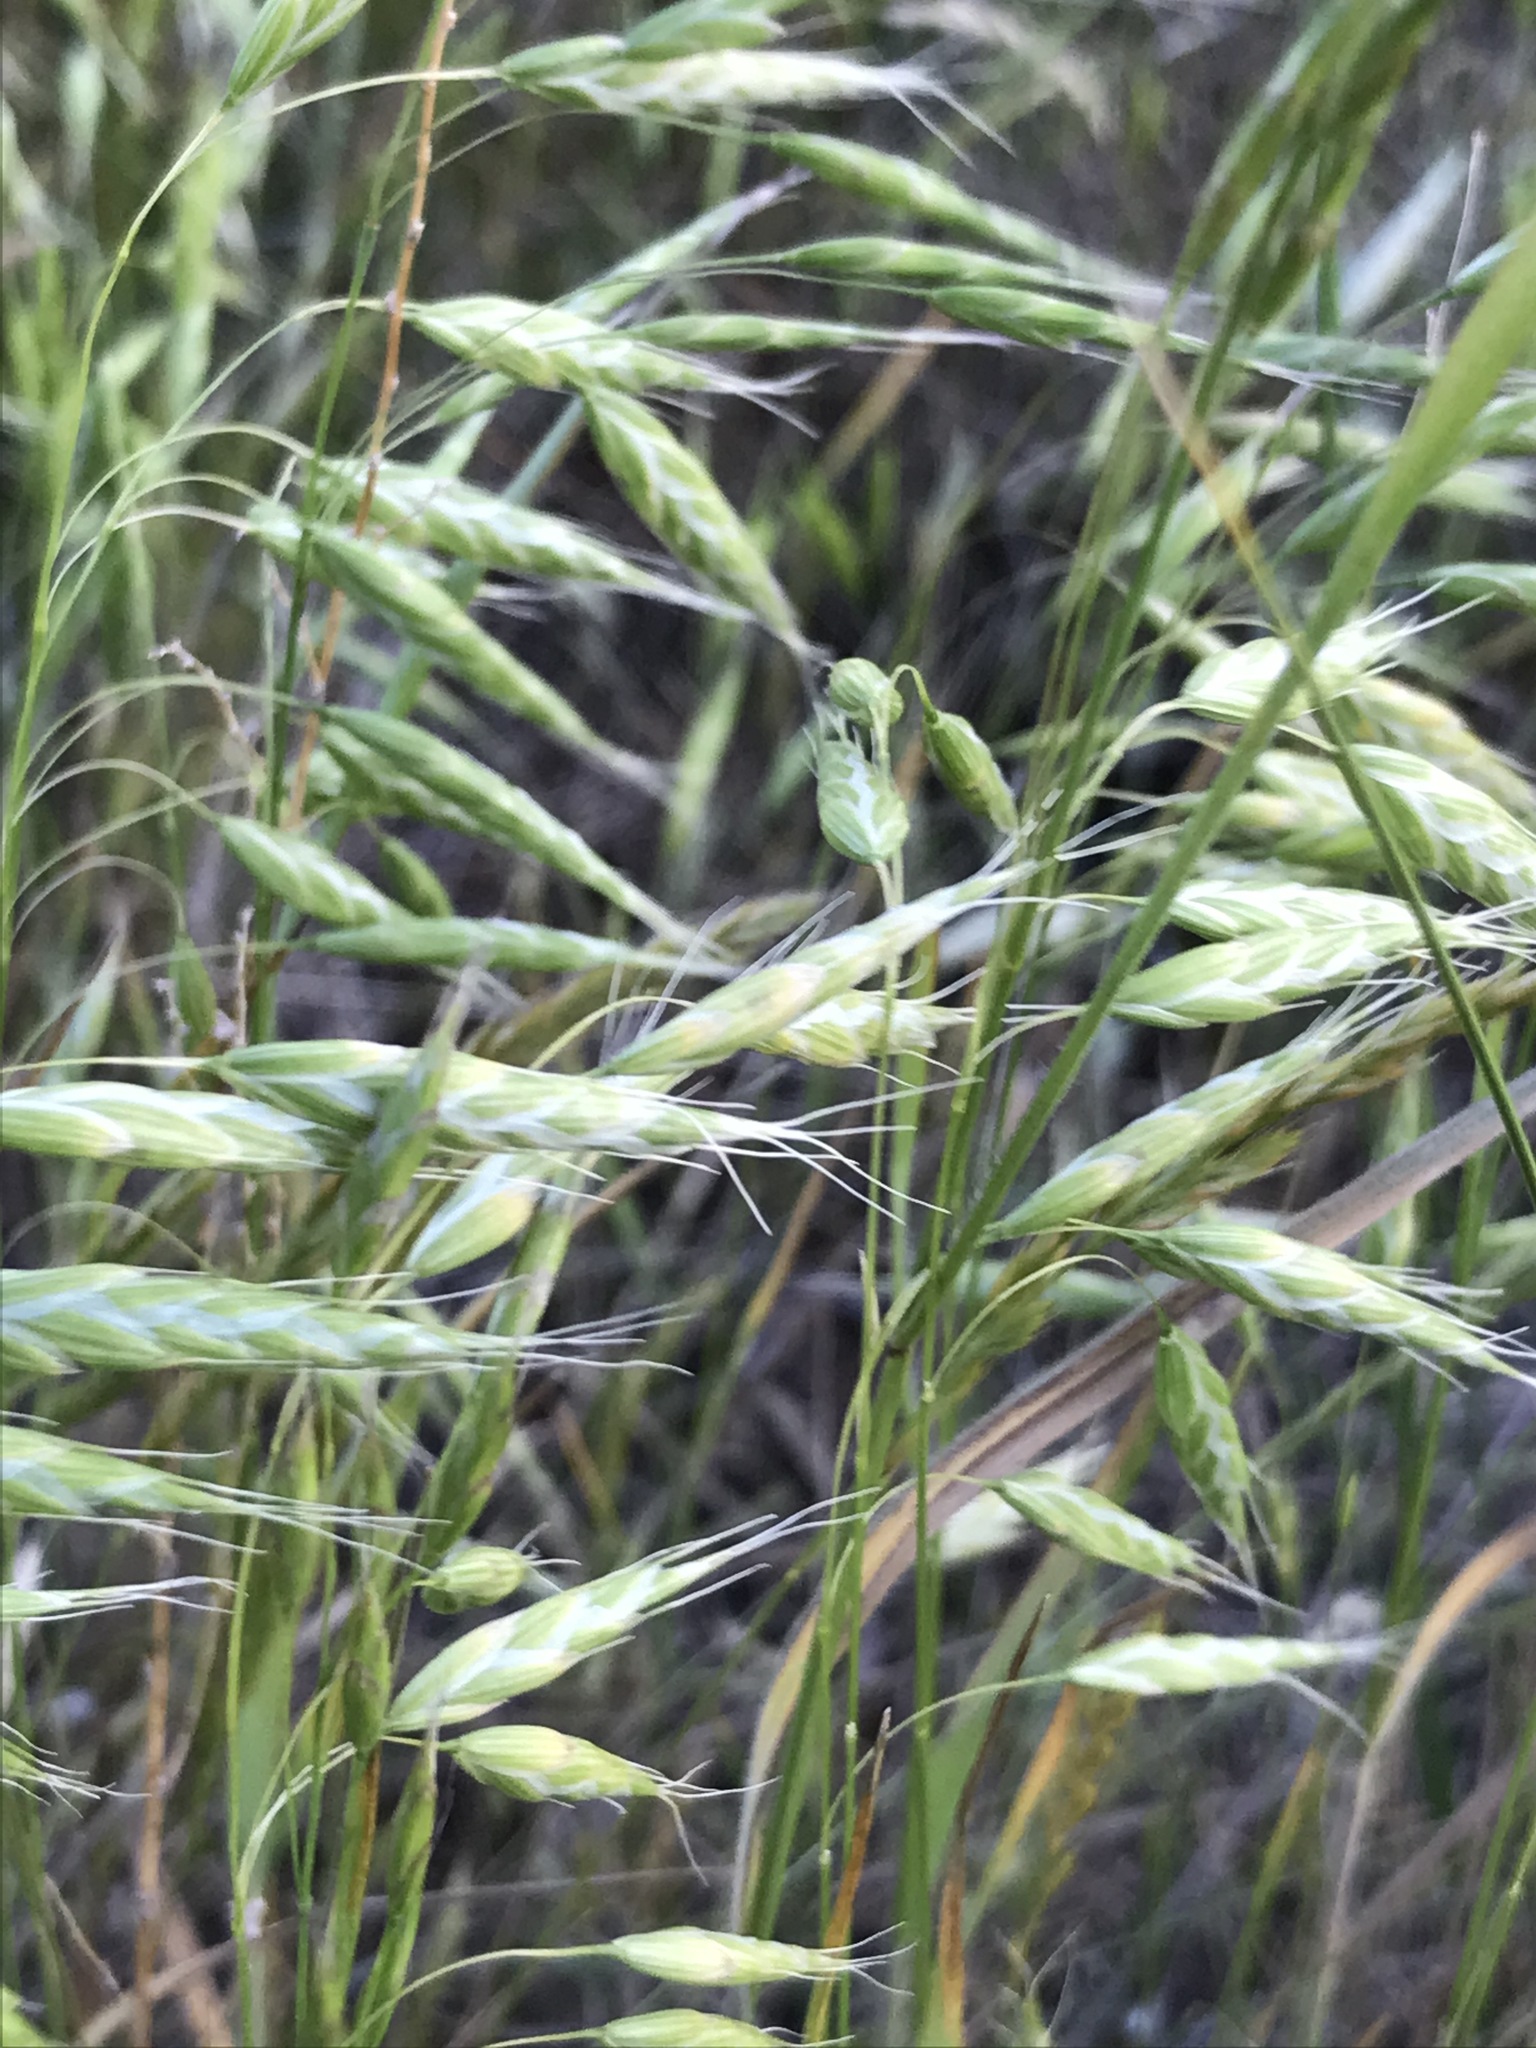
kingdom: Plantae
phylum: Tracheophyta
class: Liliopsida
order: Poales
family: Poaceae
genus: Bromus
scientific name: Bromus japonicus
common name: Japanese brome
